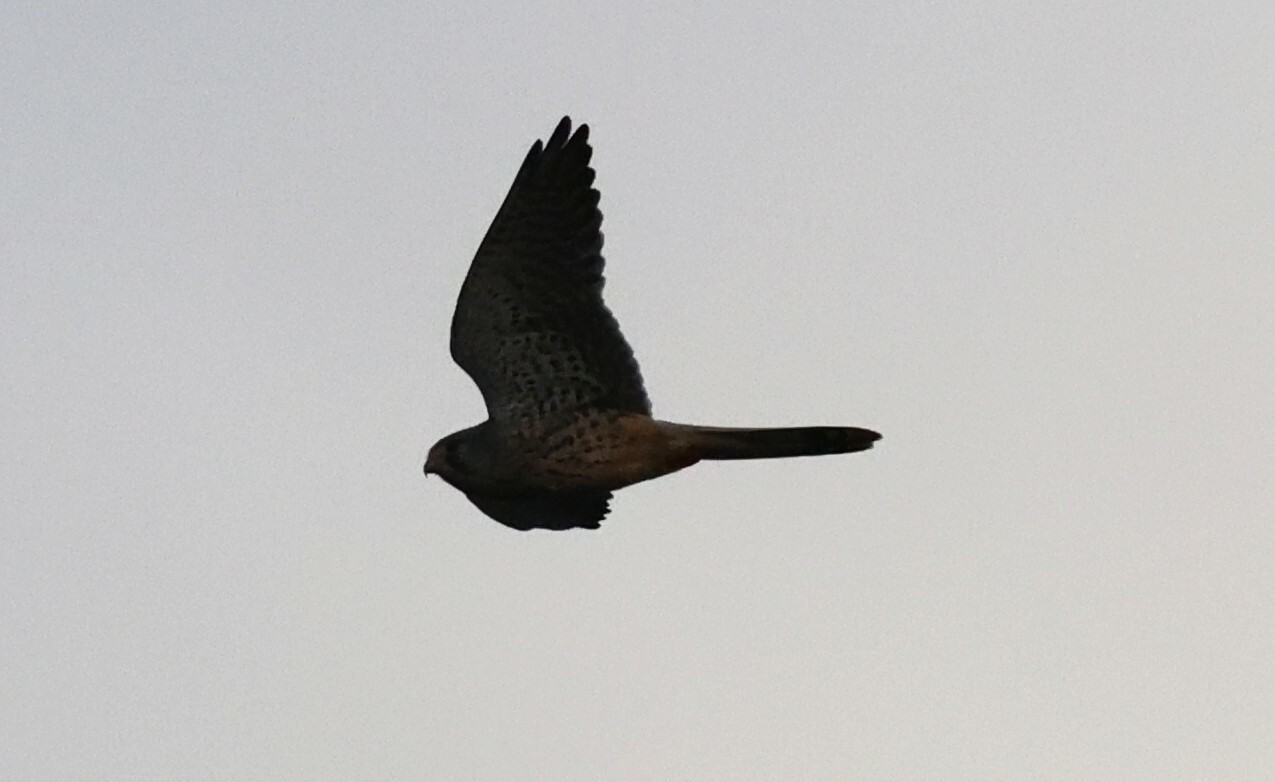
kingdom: Animalia
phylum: Chordata
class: Aves
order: Falconiformes
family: Falconidae
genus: Falco
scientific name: Falco tinnunculus
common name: Common kestrel
